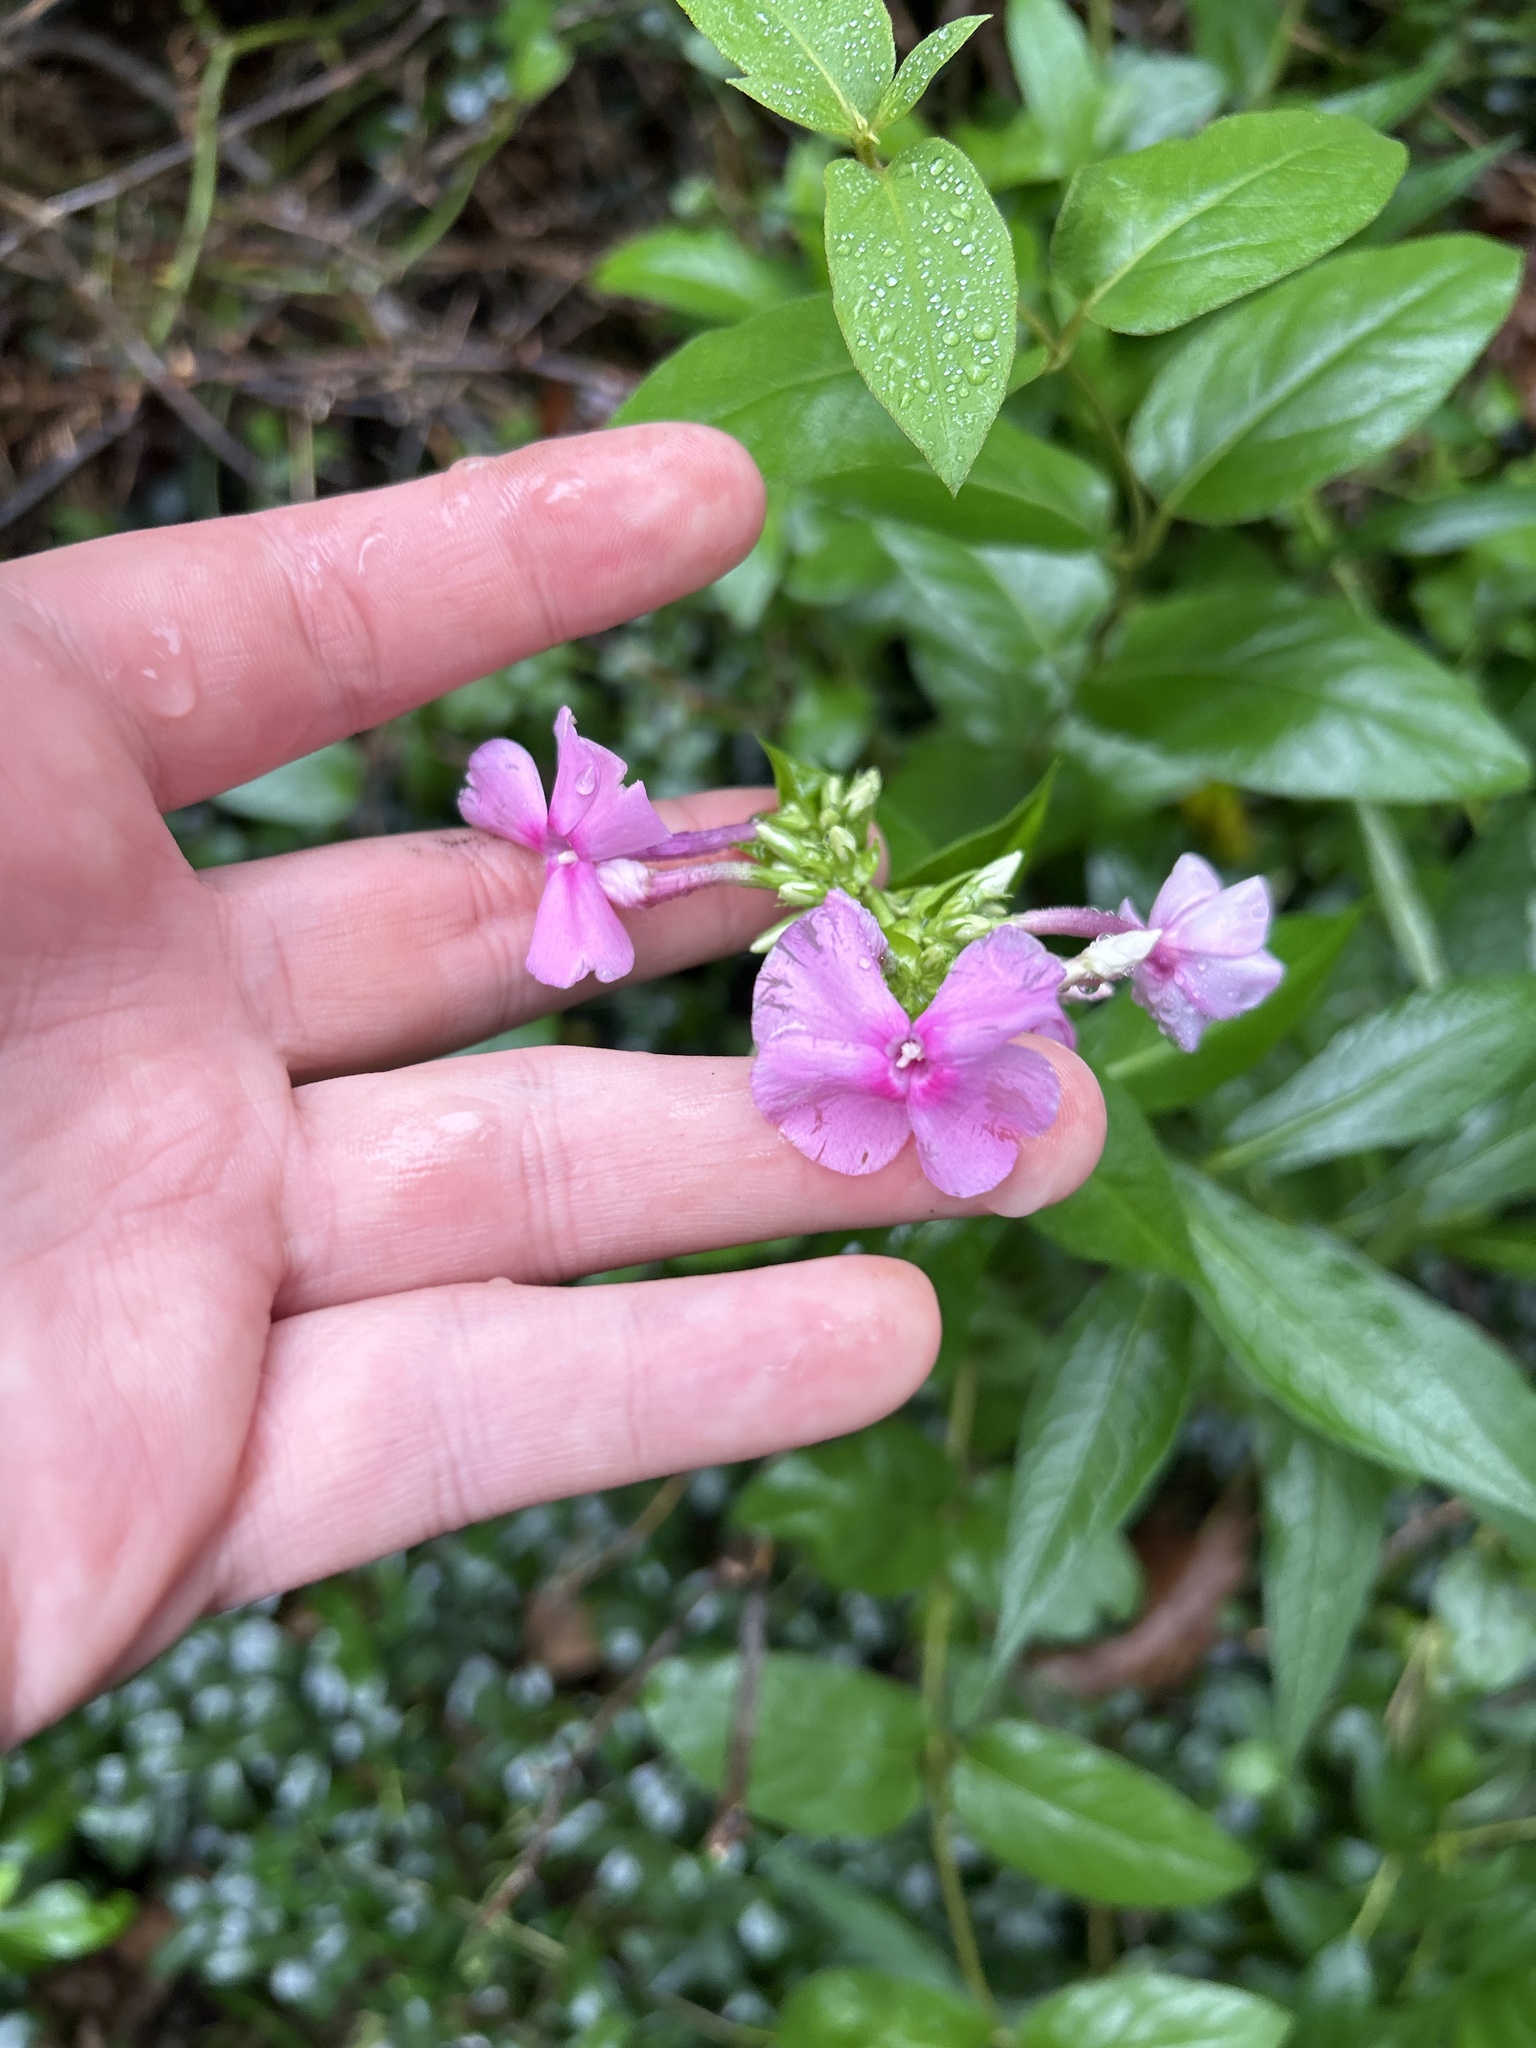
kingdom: Plantae
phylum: Tracheophyta
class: Magnoliopsida
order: Ericales
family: Polemoniaceae
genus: Phlox
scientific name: Phlox paniculata
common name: Fall phlox
